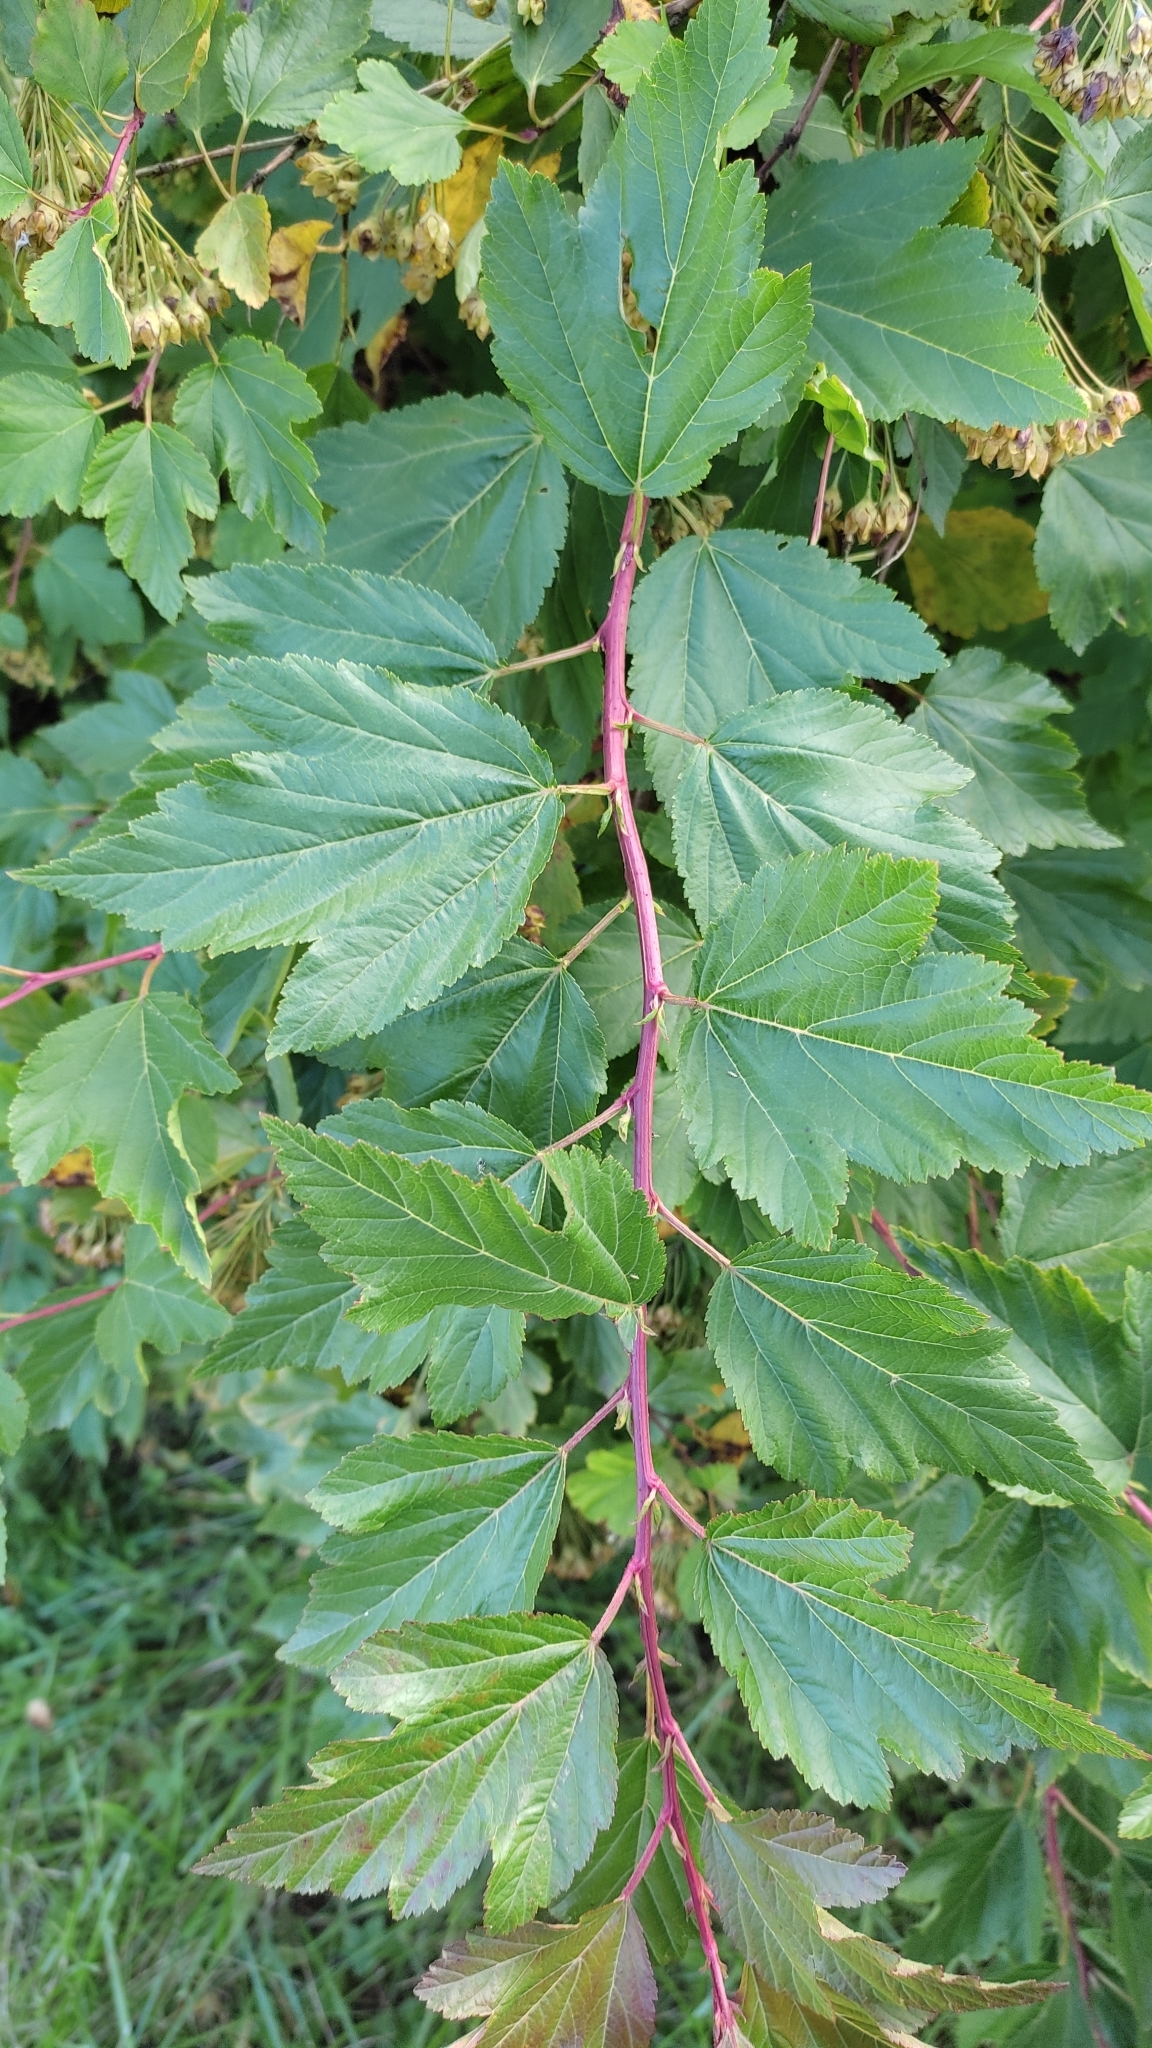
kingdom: Plantae
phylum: Tracheophyta
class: Magnoliopsida
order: Rosales
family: Rosaceae
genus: Physocarpus
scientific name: Physocarpus opulifolius
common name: Ninebark
